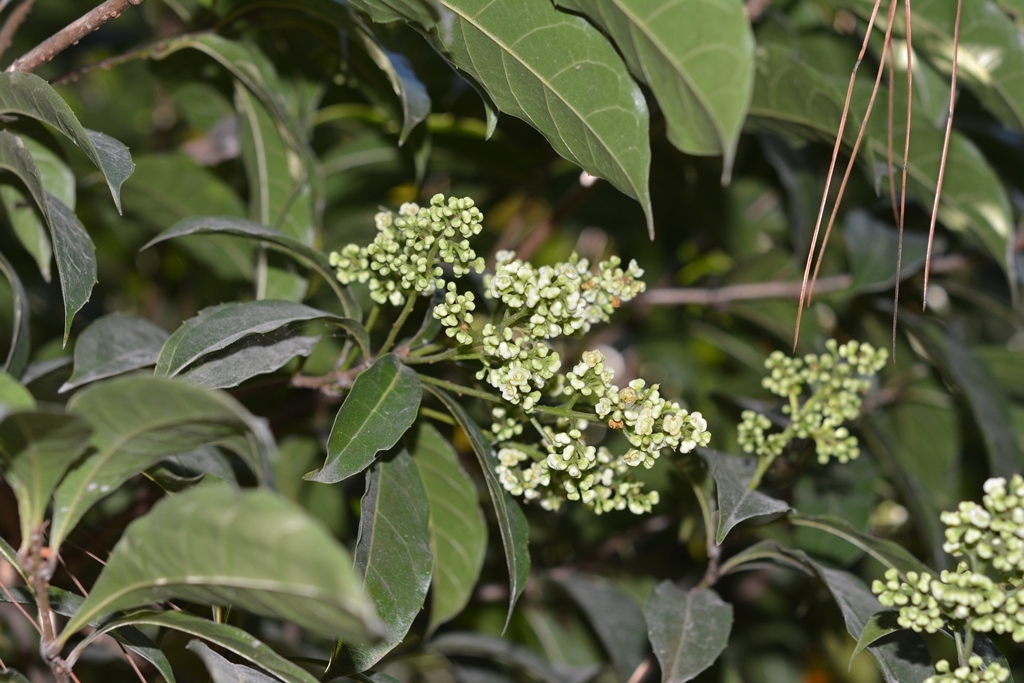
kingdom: Plantae
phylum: Tracheophyta
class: Magnoliopsida
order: Proteales
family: Sabiaceae
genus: Meliosma
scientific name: Meliosma dentata
